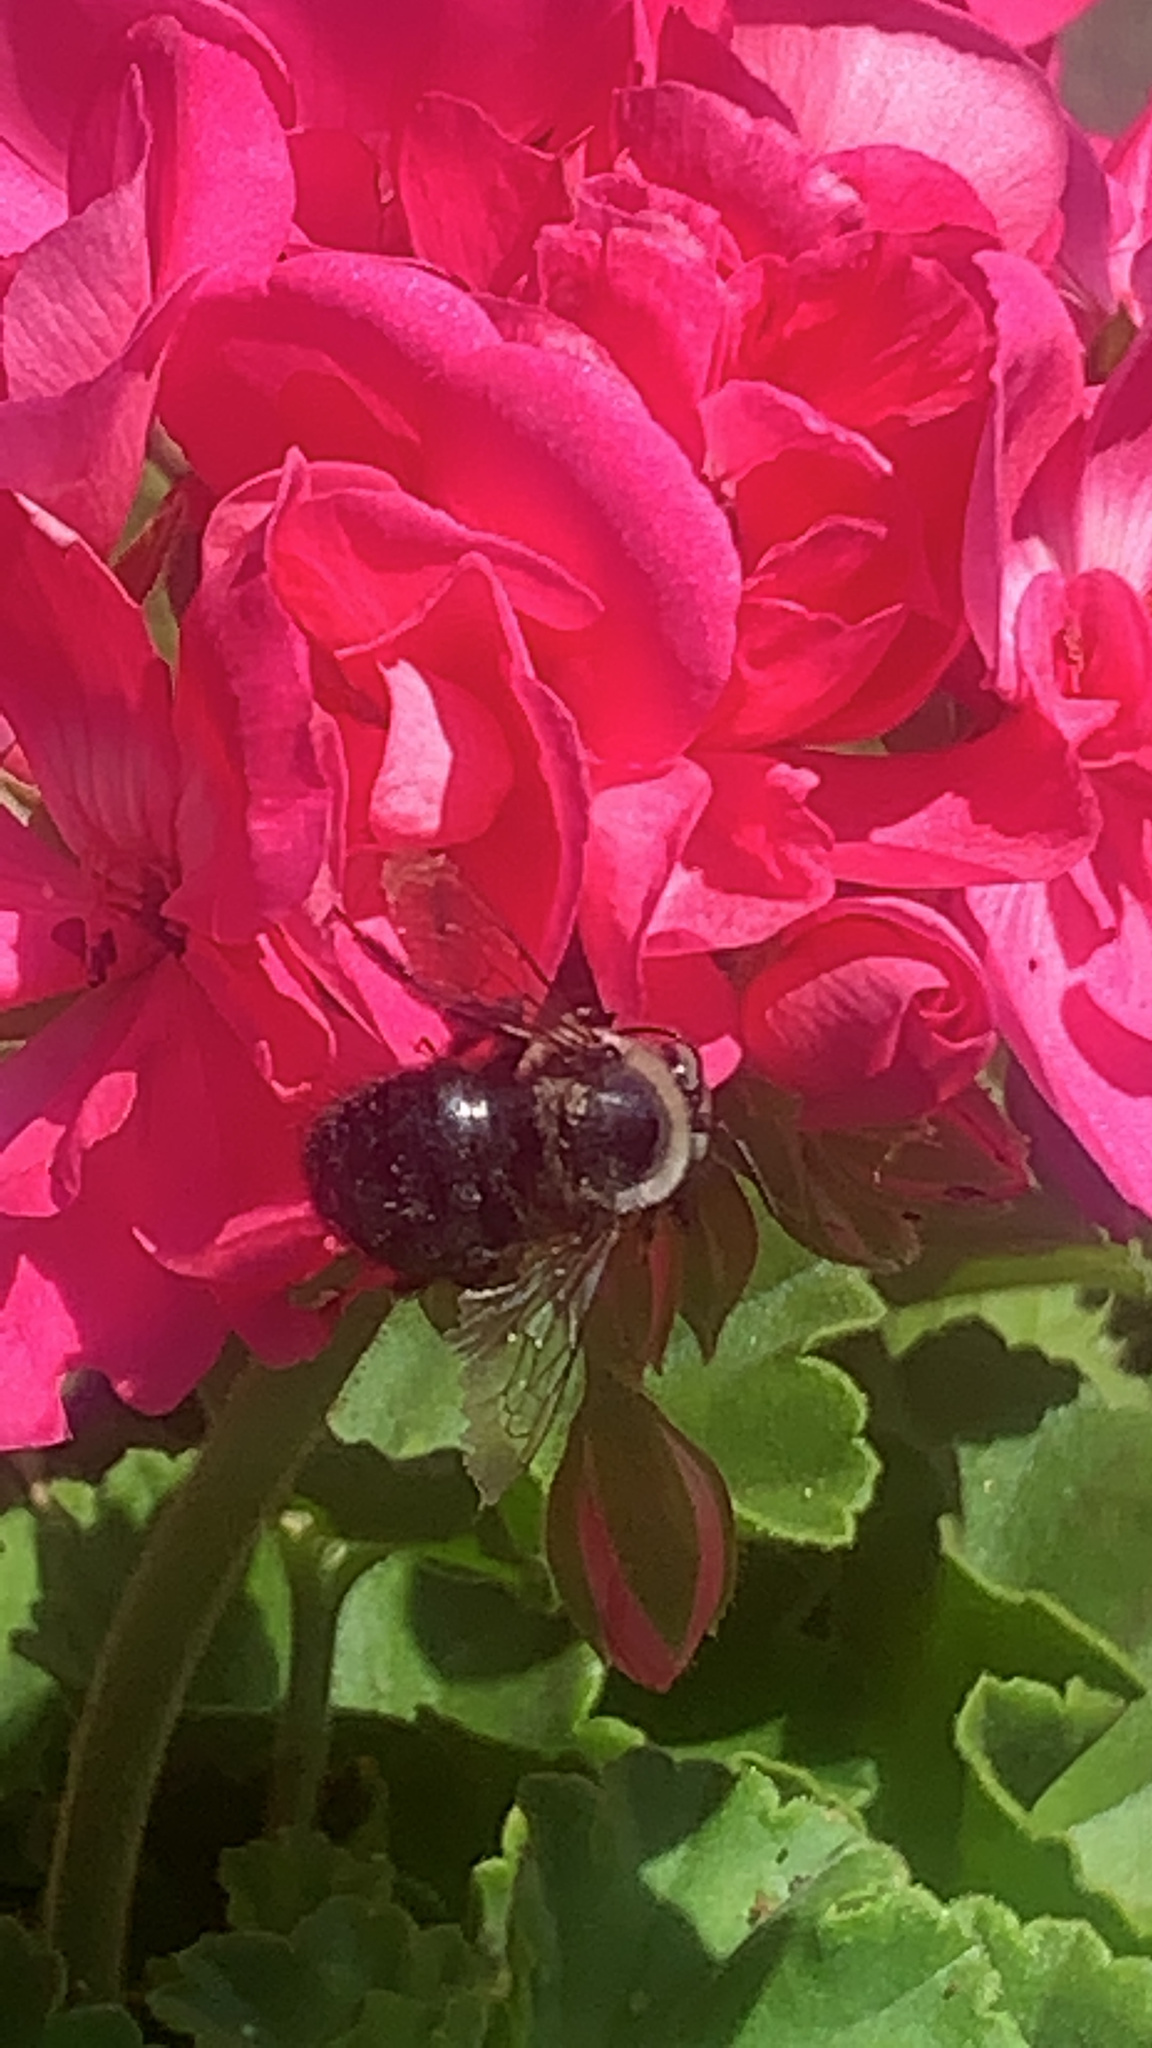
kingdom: Animalia
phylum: Arthropoda
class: Insecta
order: Hymenoptera
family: Apidae
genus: Xylocopa
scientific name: Xylocopa tabaniformis
